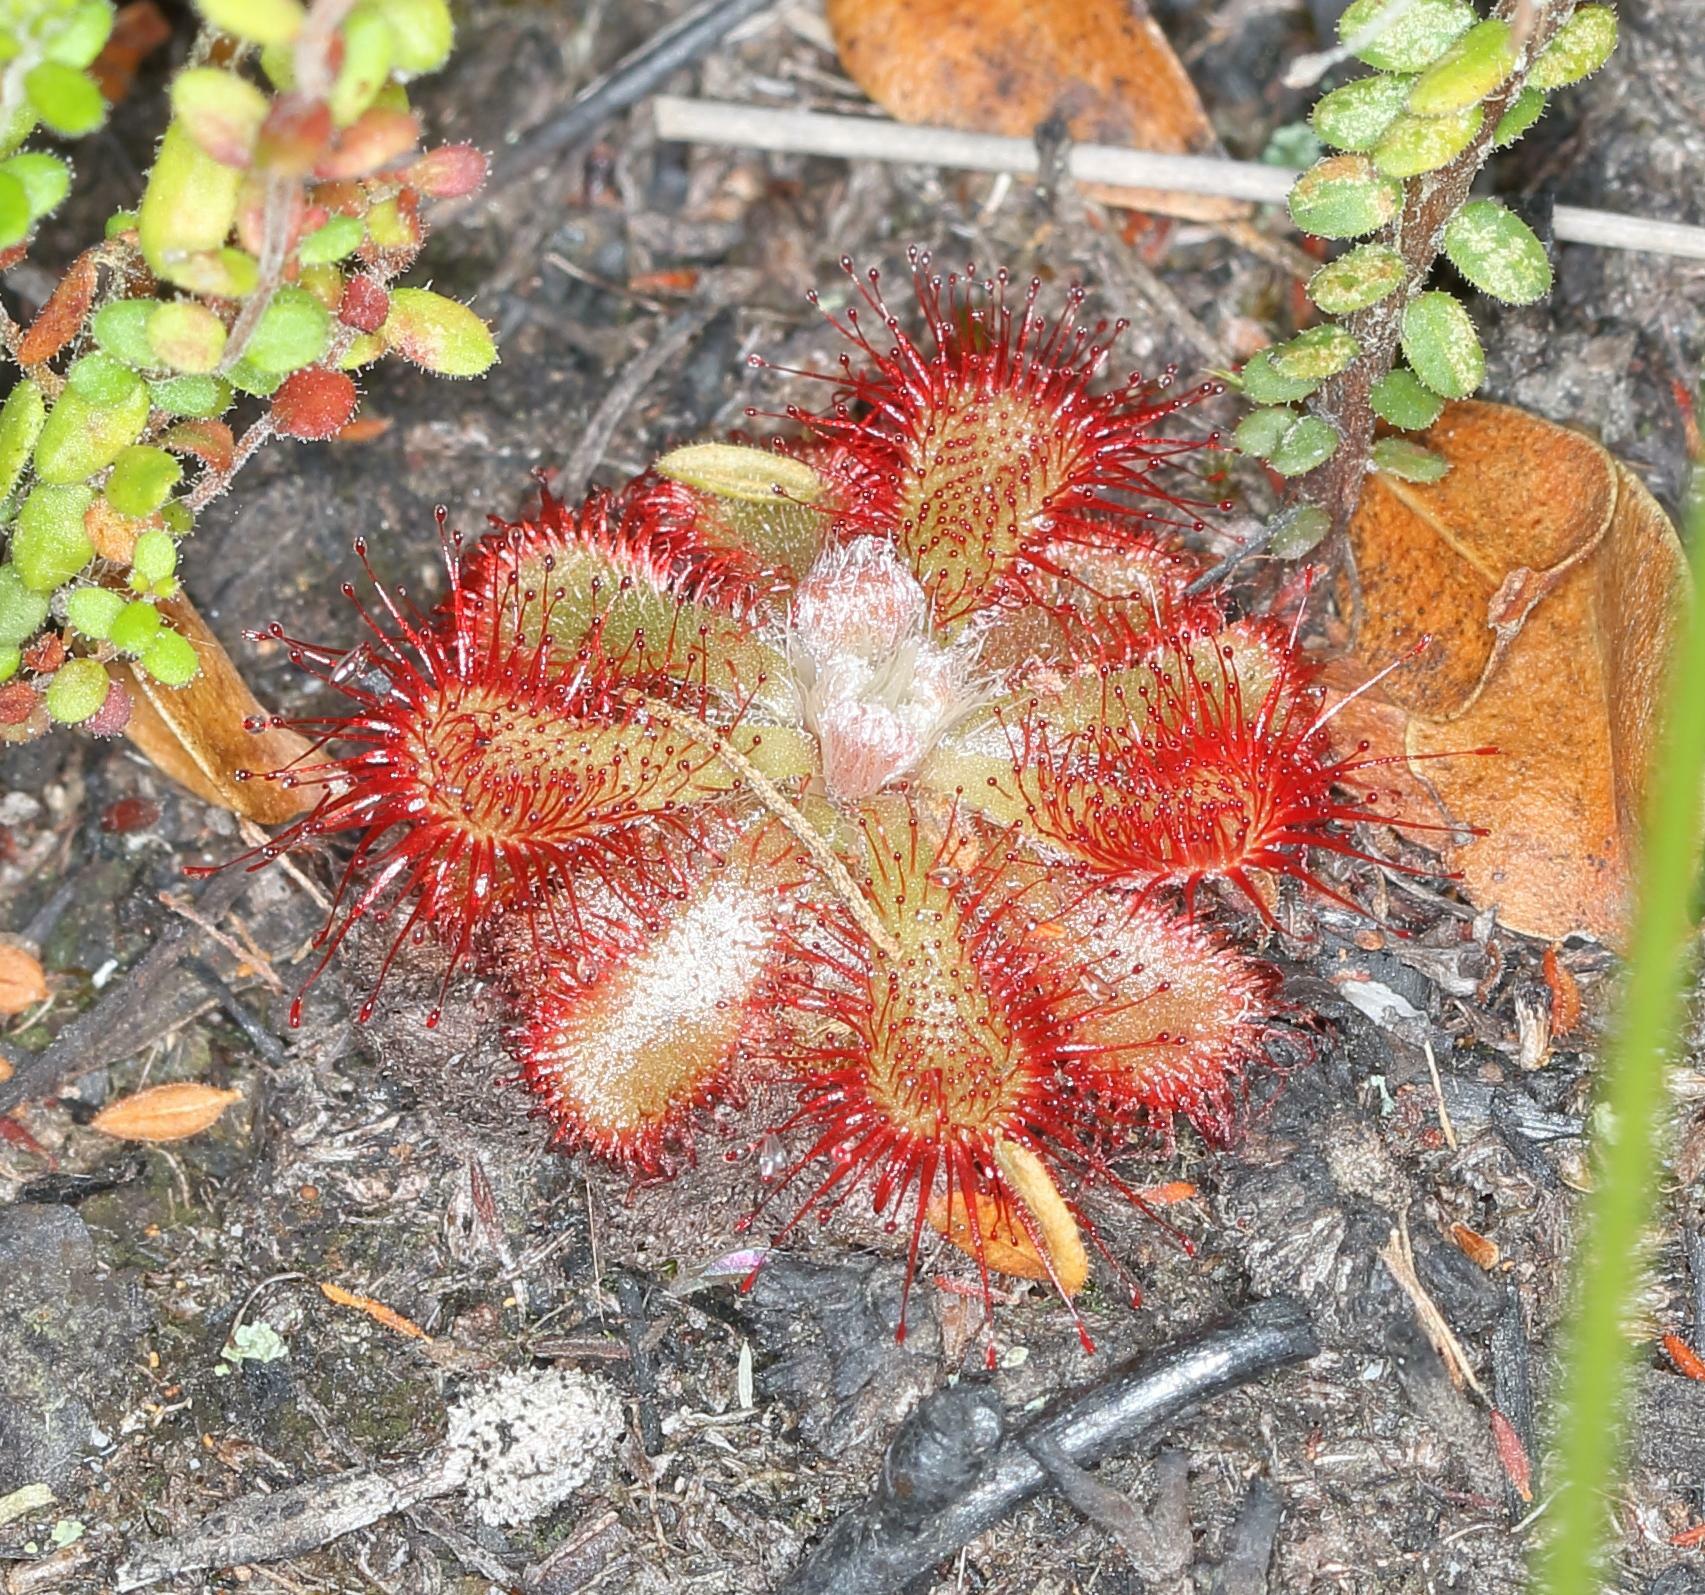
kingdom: Plantae
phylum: Tracheophyta
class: Magnoliopsida
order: Caryophyllales
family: Droseraceae
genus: Drosera
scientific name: Drosera aliciae
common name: Alice sundew
